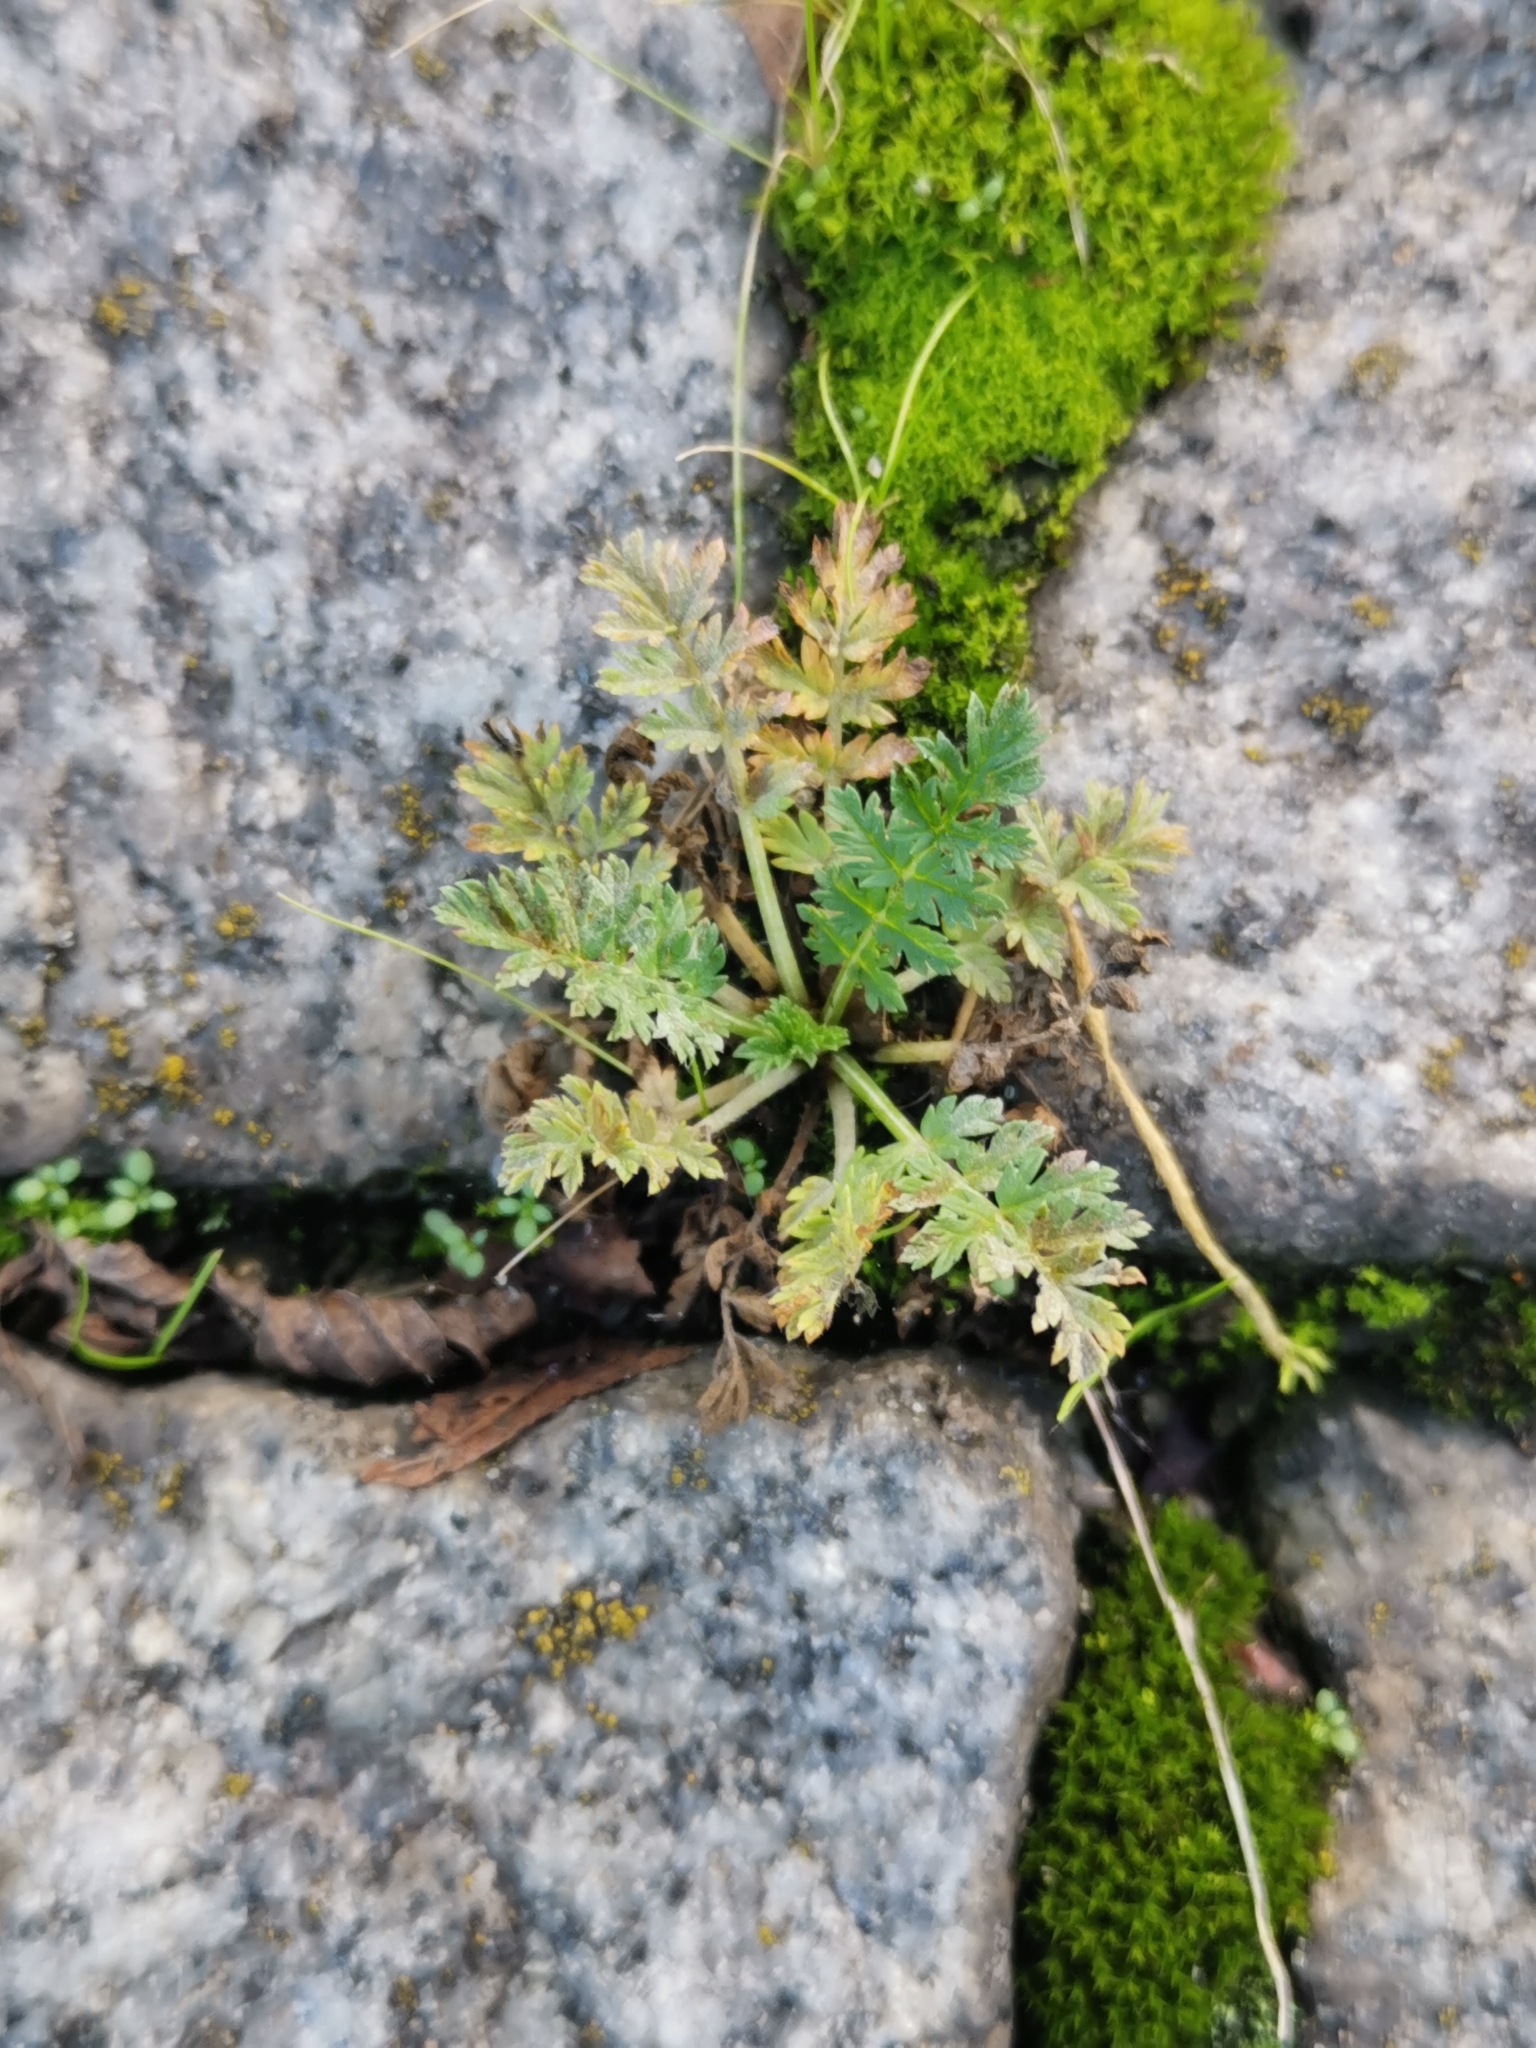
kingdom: Plantae
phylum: Tracheophyta
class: Magnoliopsida
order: Geraniales
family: Geraniaceae
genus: Erodium
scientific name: Erodium cicutarium
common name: Common stork's-bill
